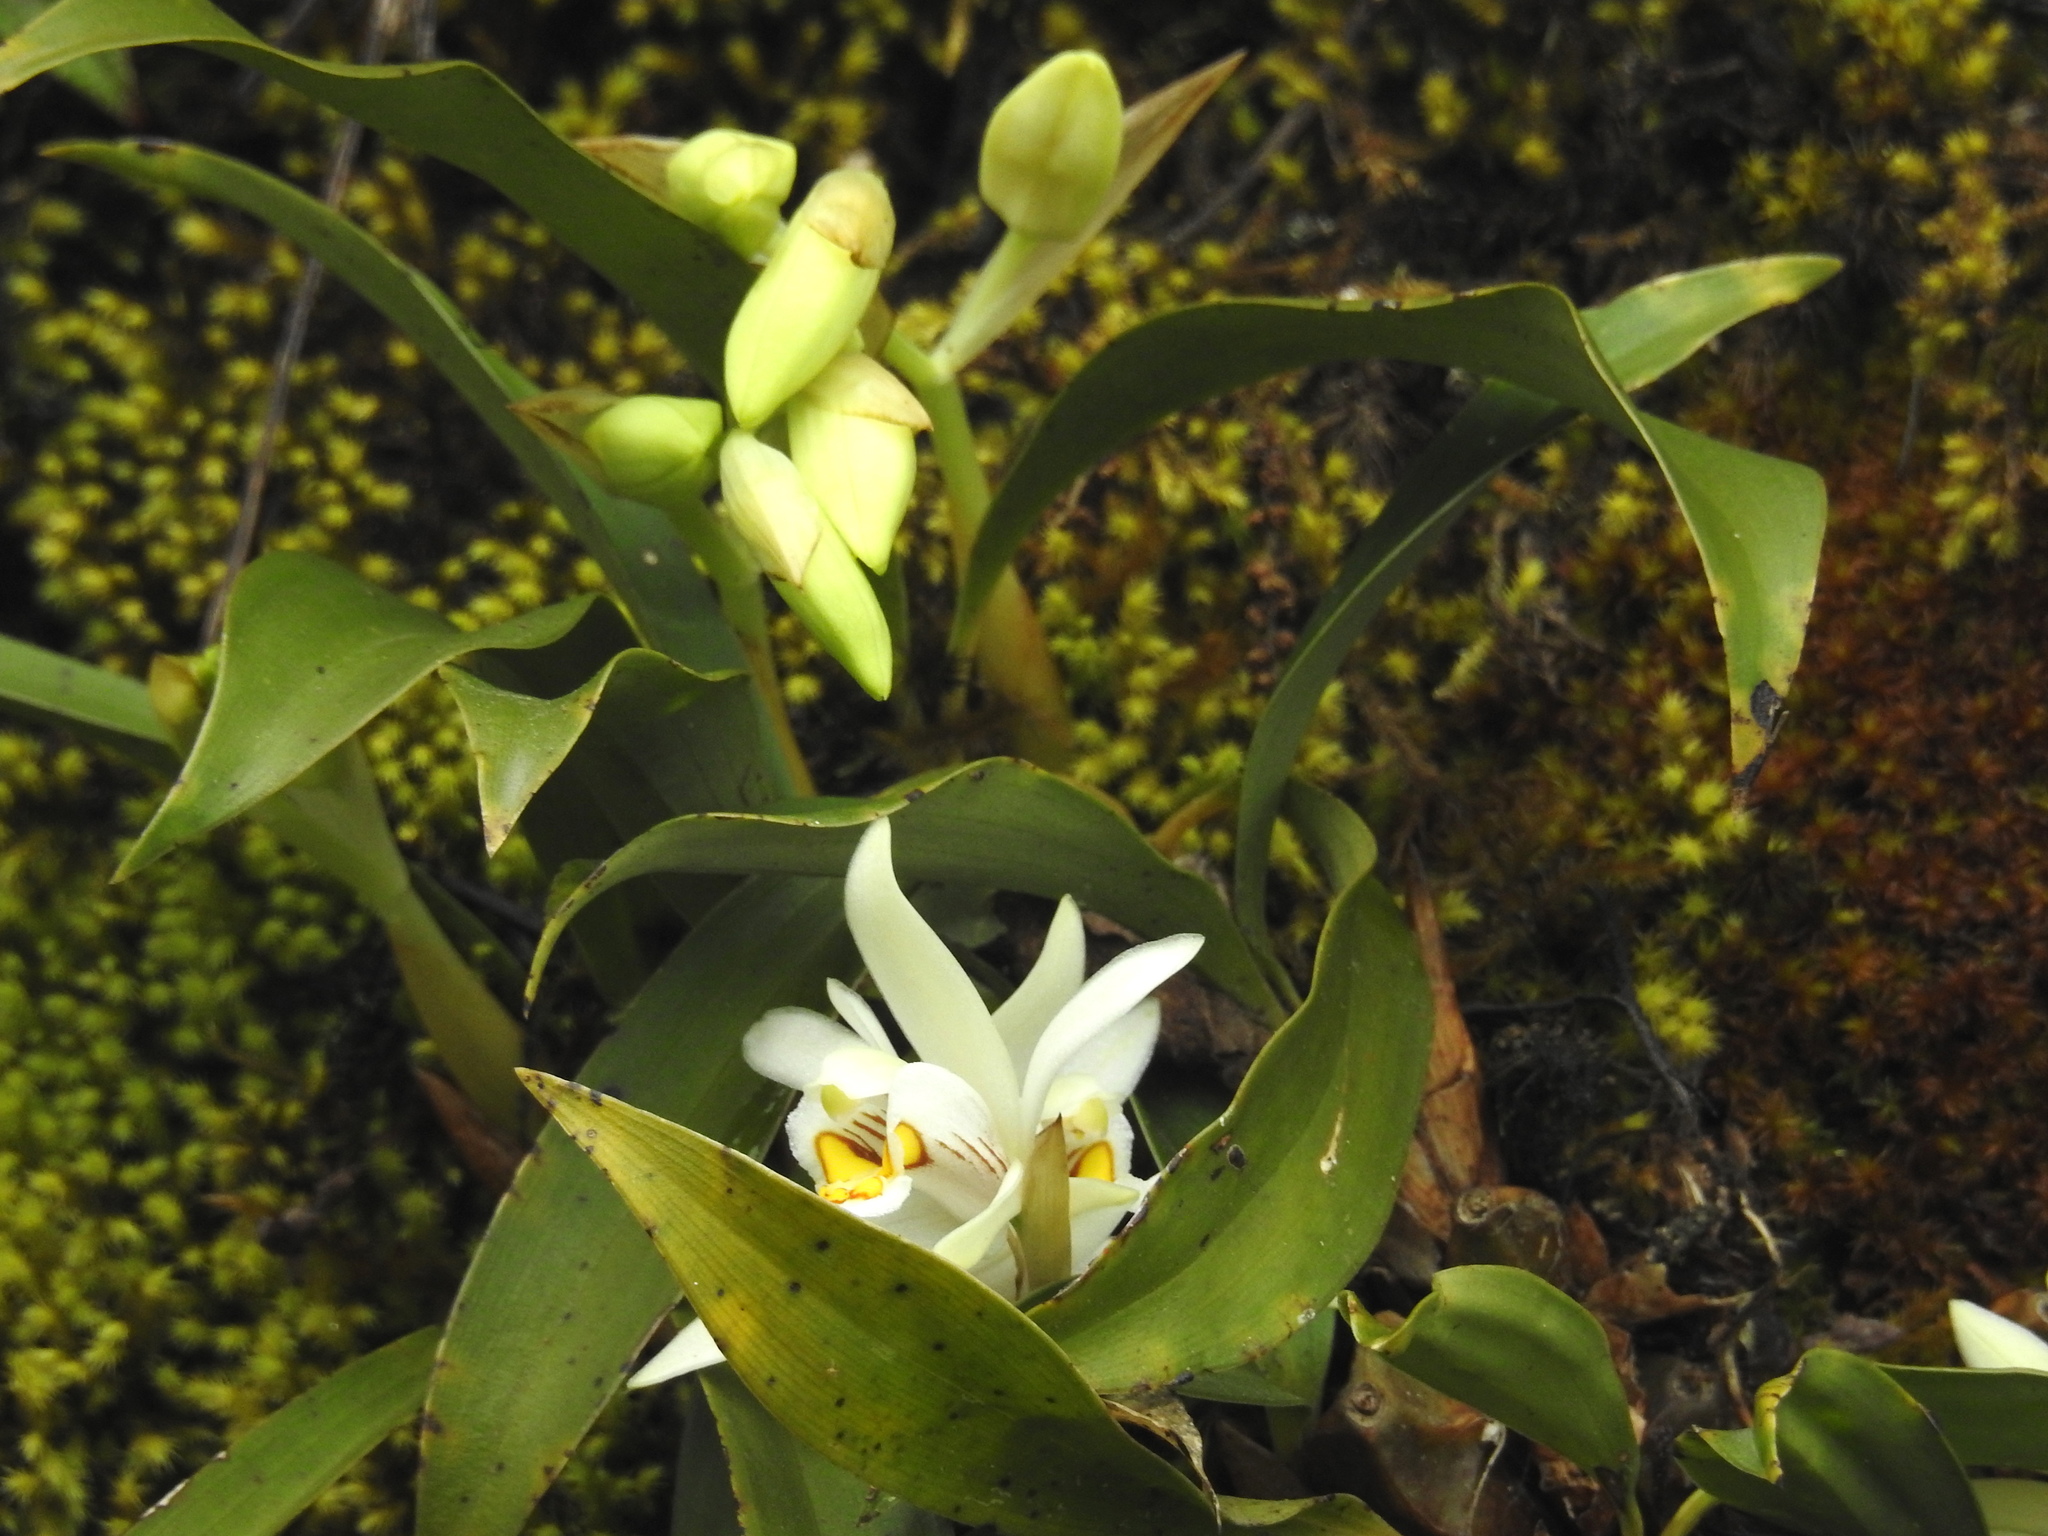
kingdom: Plantae
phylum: Tracheophyta
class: Liliopsida
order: Asparagales
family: Orchidaceae
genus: Coelogyne
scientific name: Coelogyne nitida
